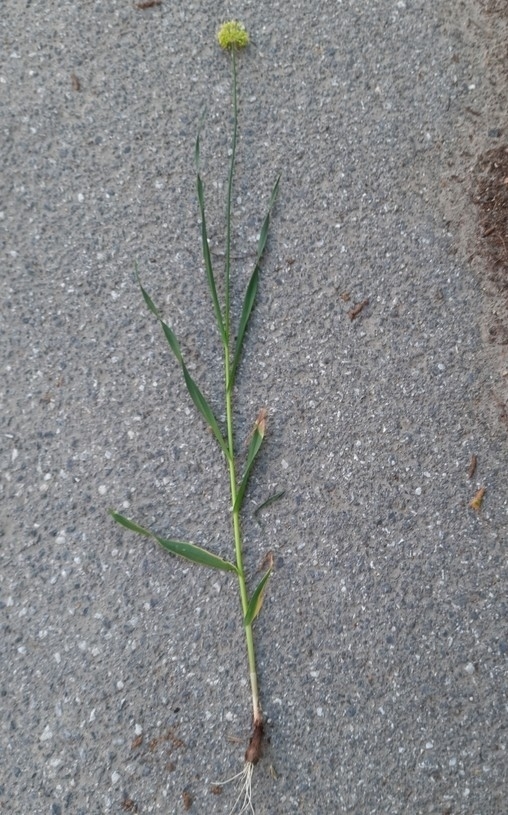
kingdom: Plantae
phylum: Tracheophyta
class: Liliopsida
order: Asparagales
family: Amaryllidaceae
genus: Allium
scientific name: Allium obliquum
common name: Oblique onion
